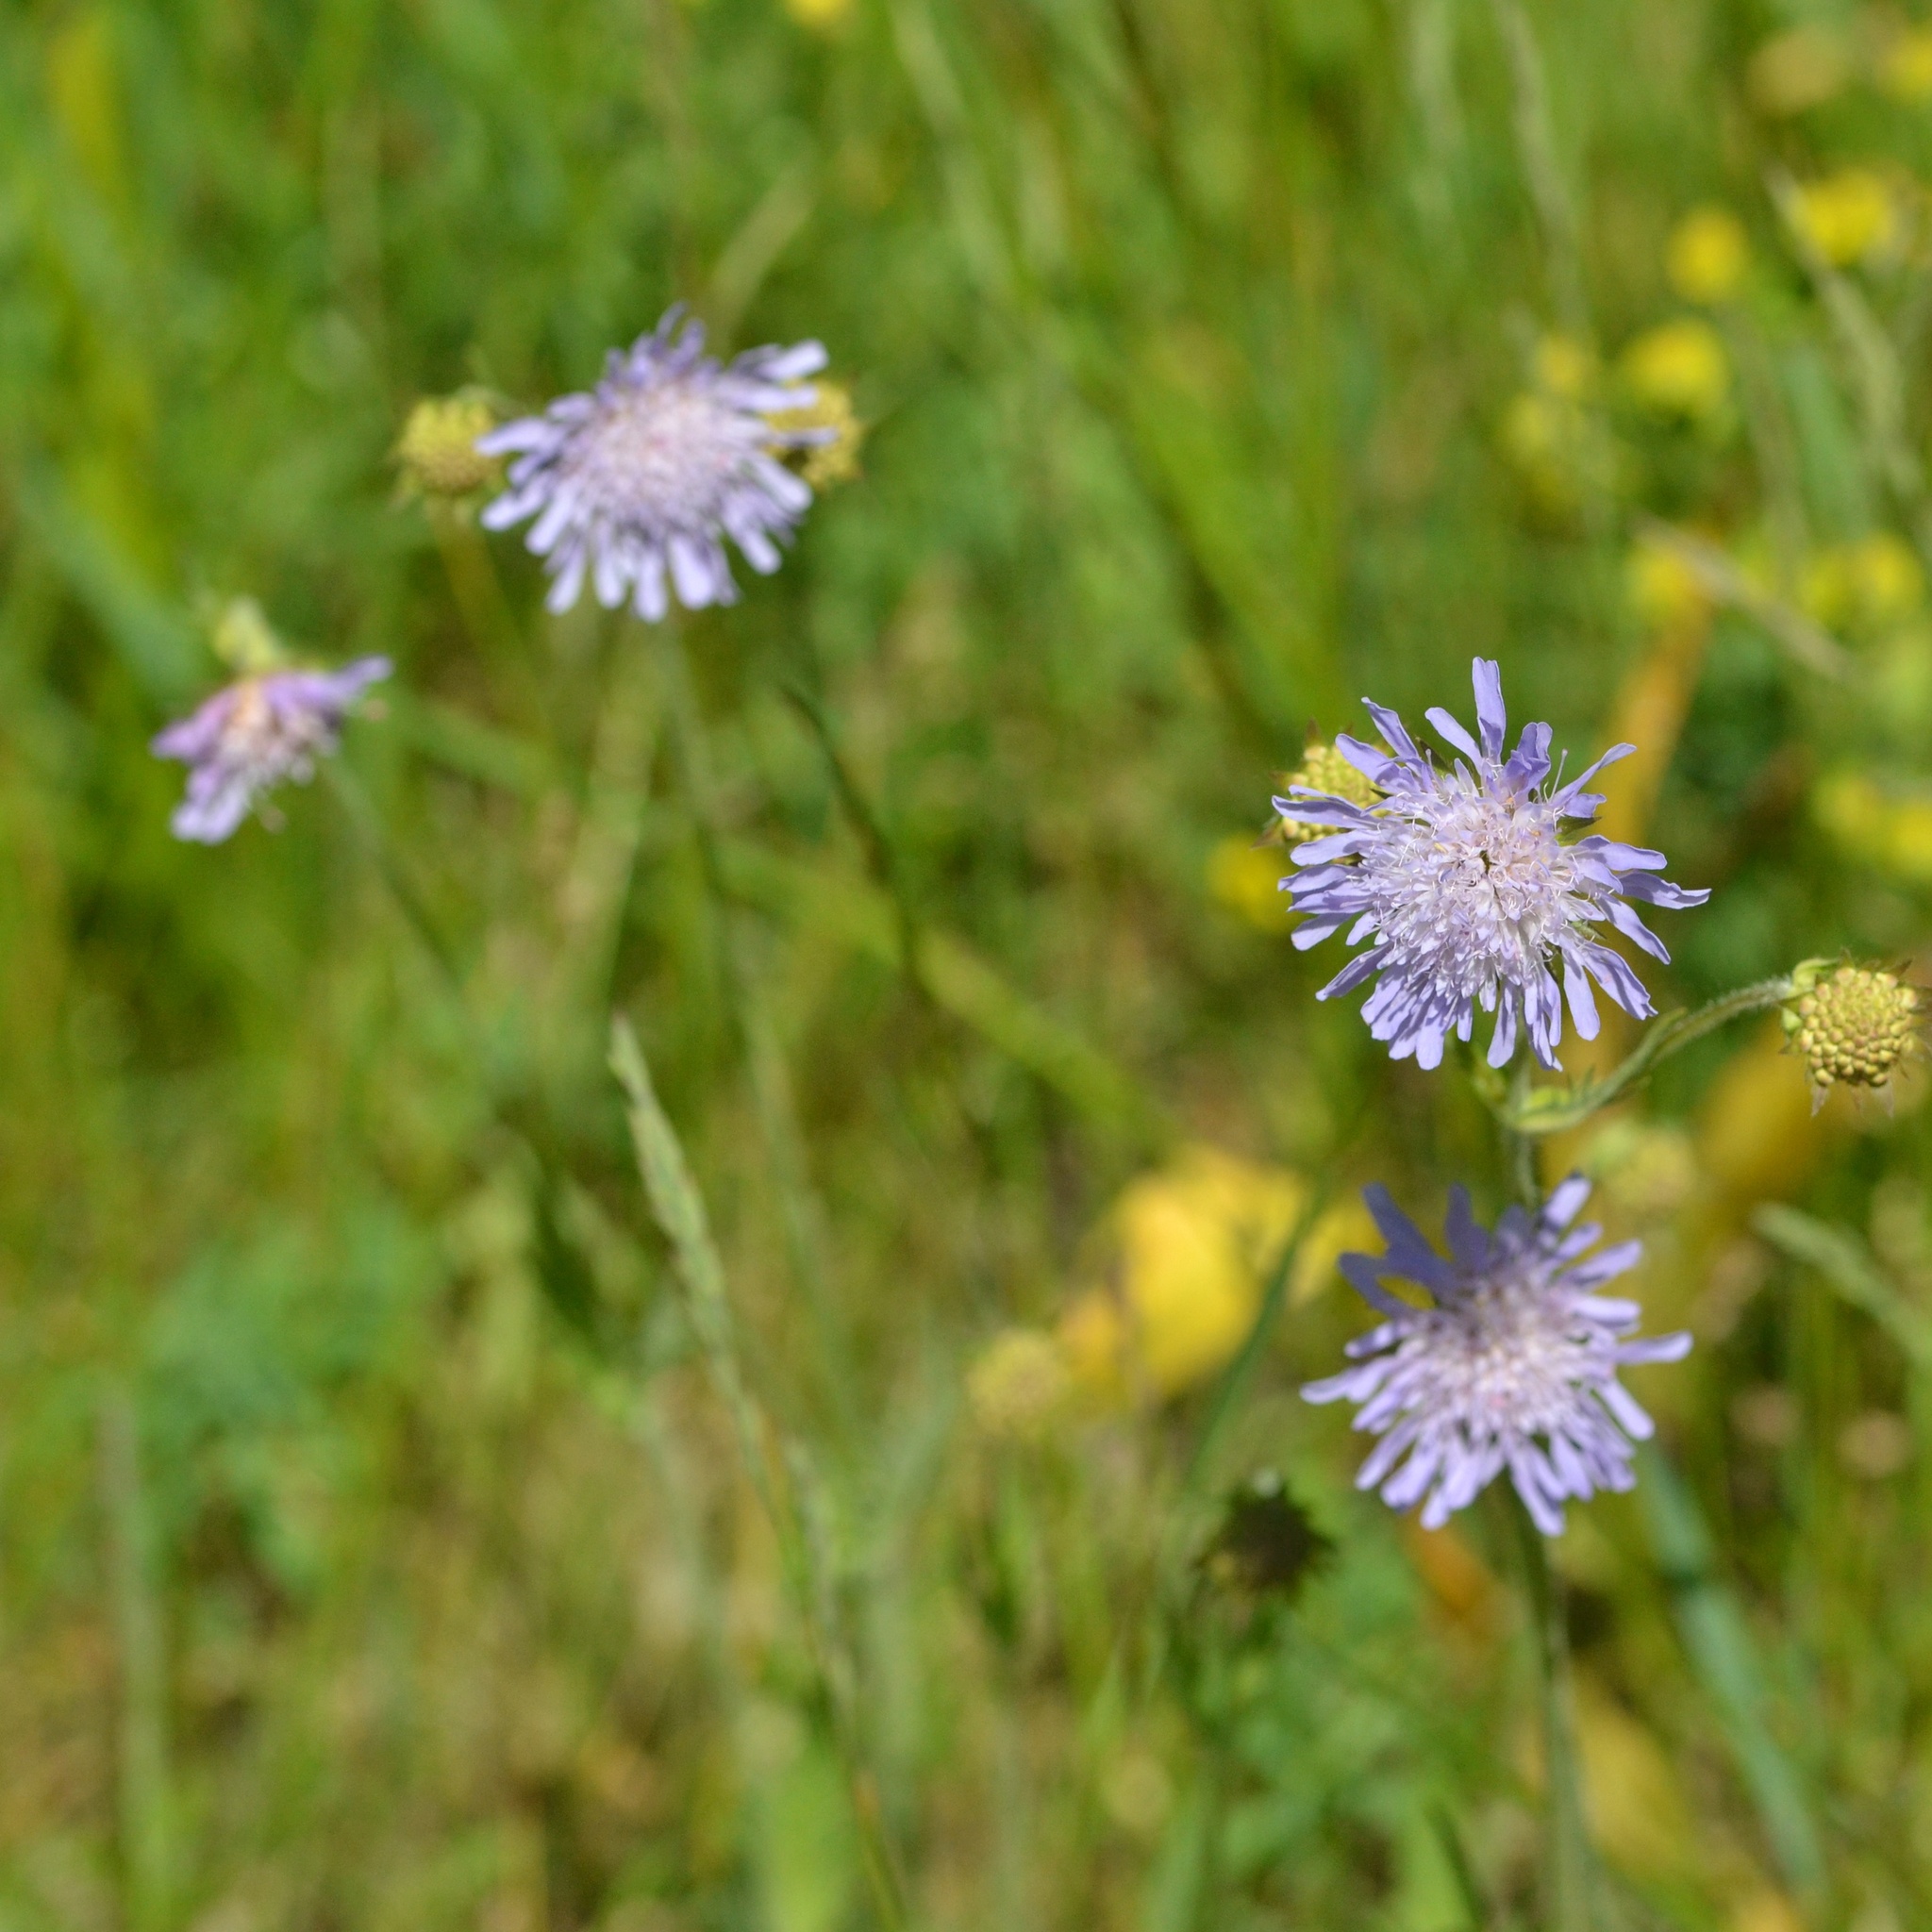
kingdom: Plantae
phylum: Tracheophyta
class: Magnoliopsida
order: Dipsacales
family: Caprifoliaceae
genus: Knautia
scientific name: Knautia arvensis
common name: Field scabiosa
